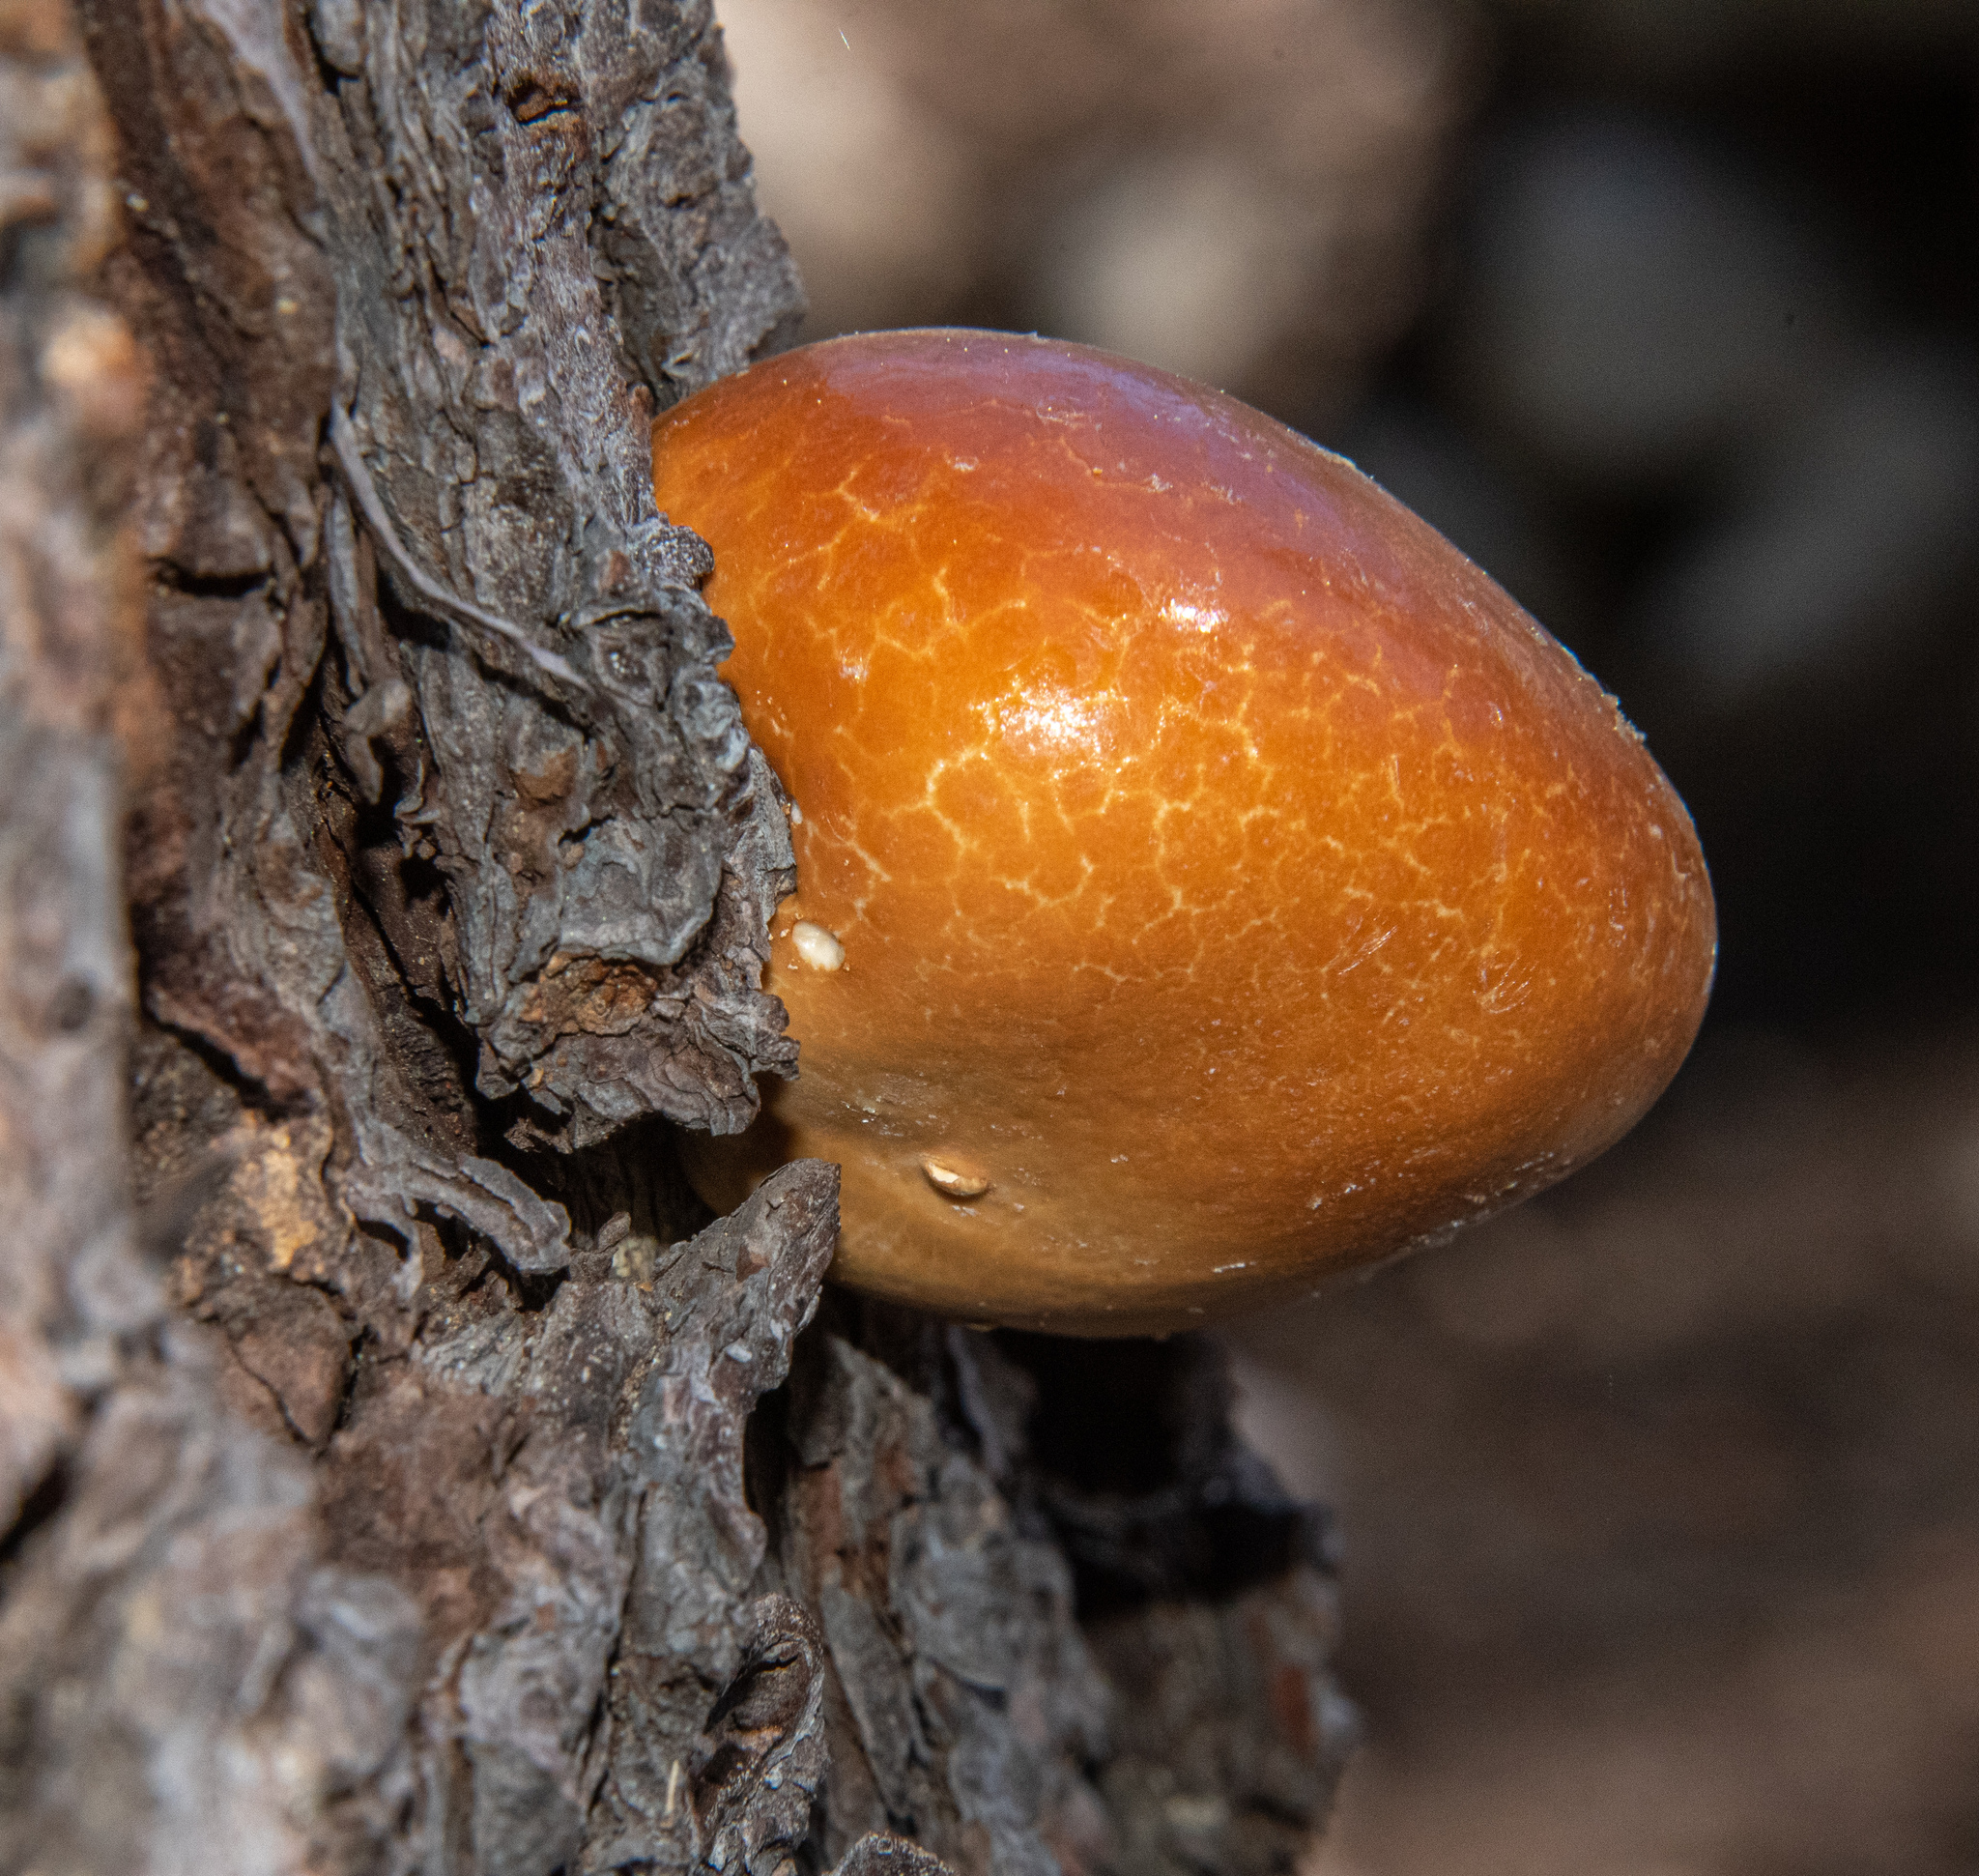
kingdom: Fungi
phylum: Basidiomycota
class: Agaricomycetes
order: Polyporales
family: Polyporaceae
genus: Cryptoporus
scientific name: Cryptoporus volvatus
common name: Veiled polypore
